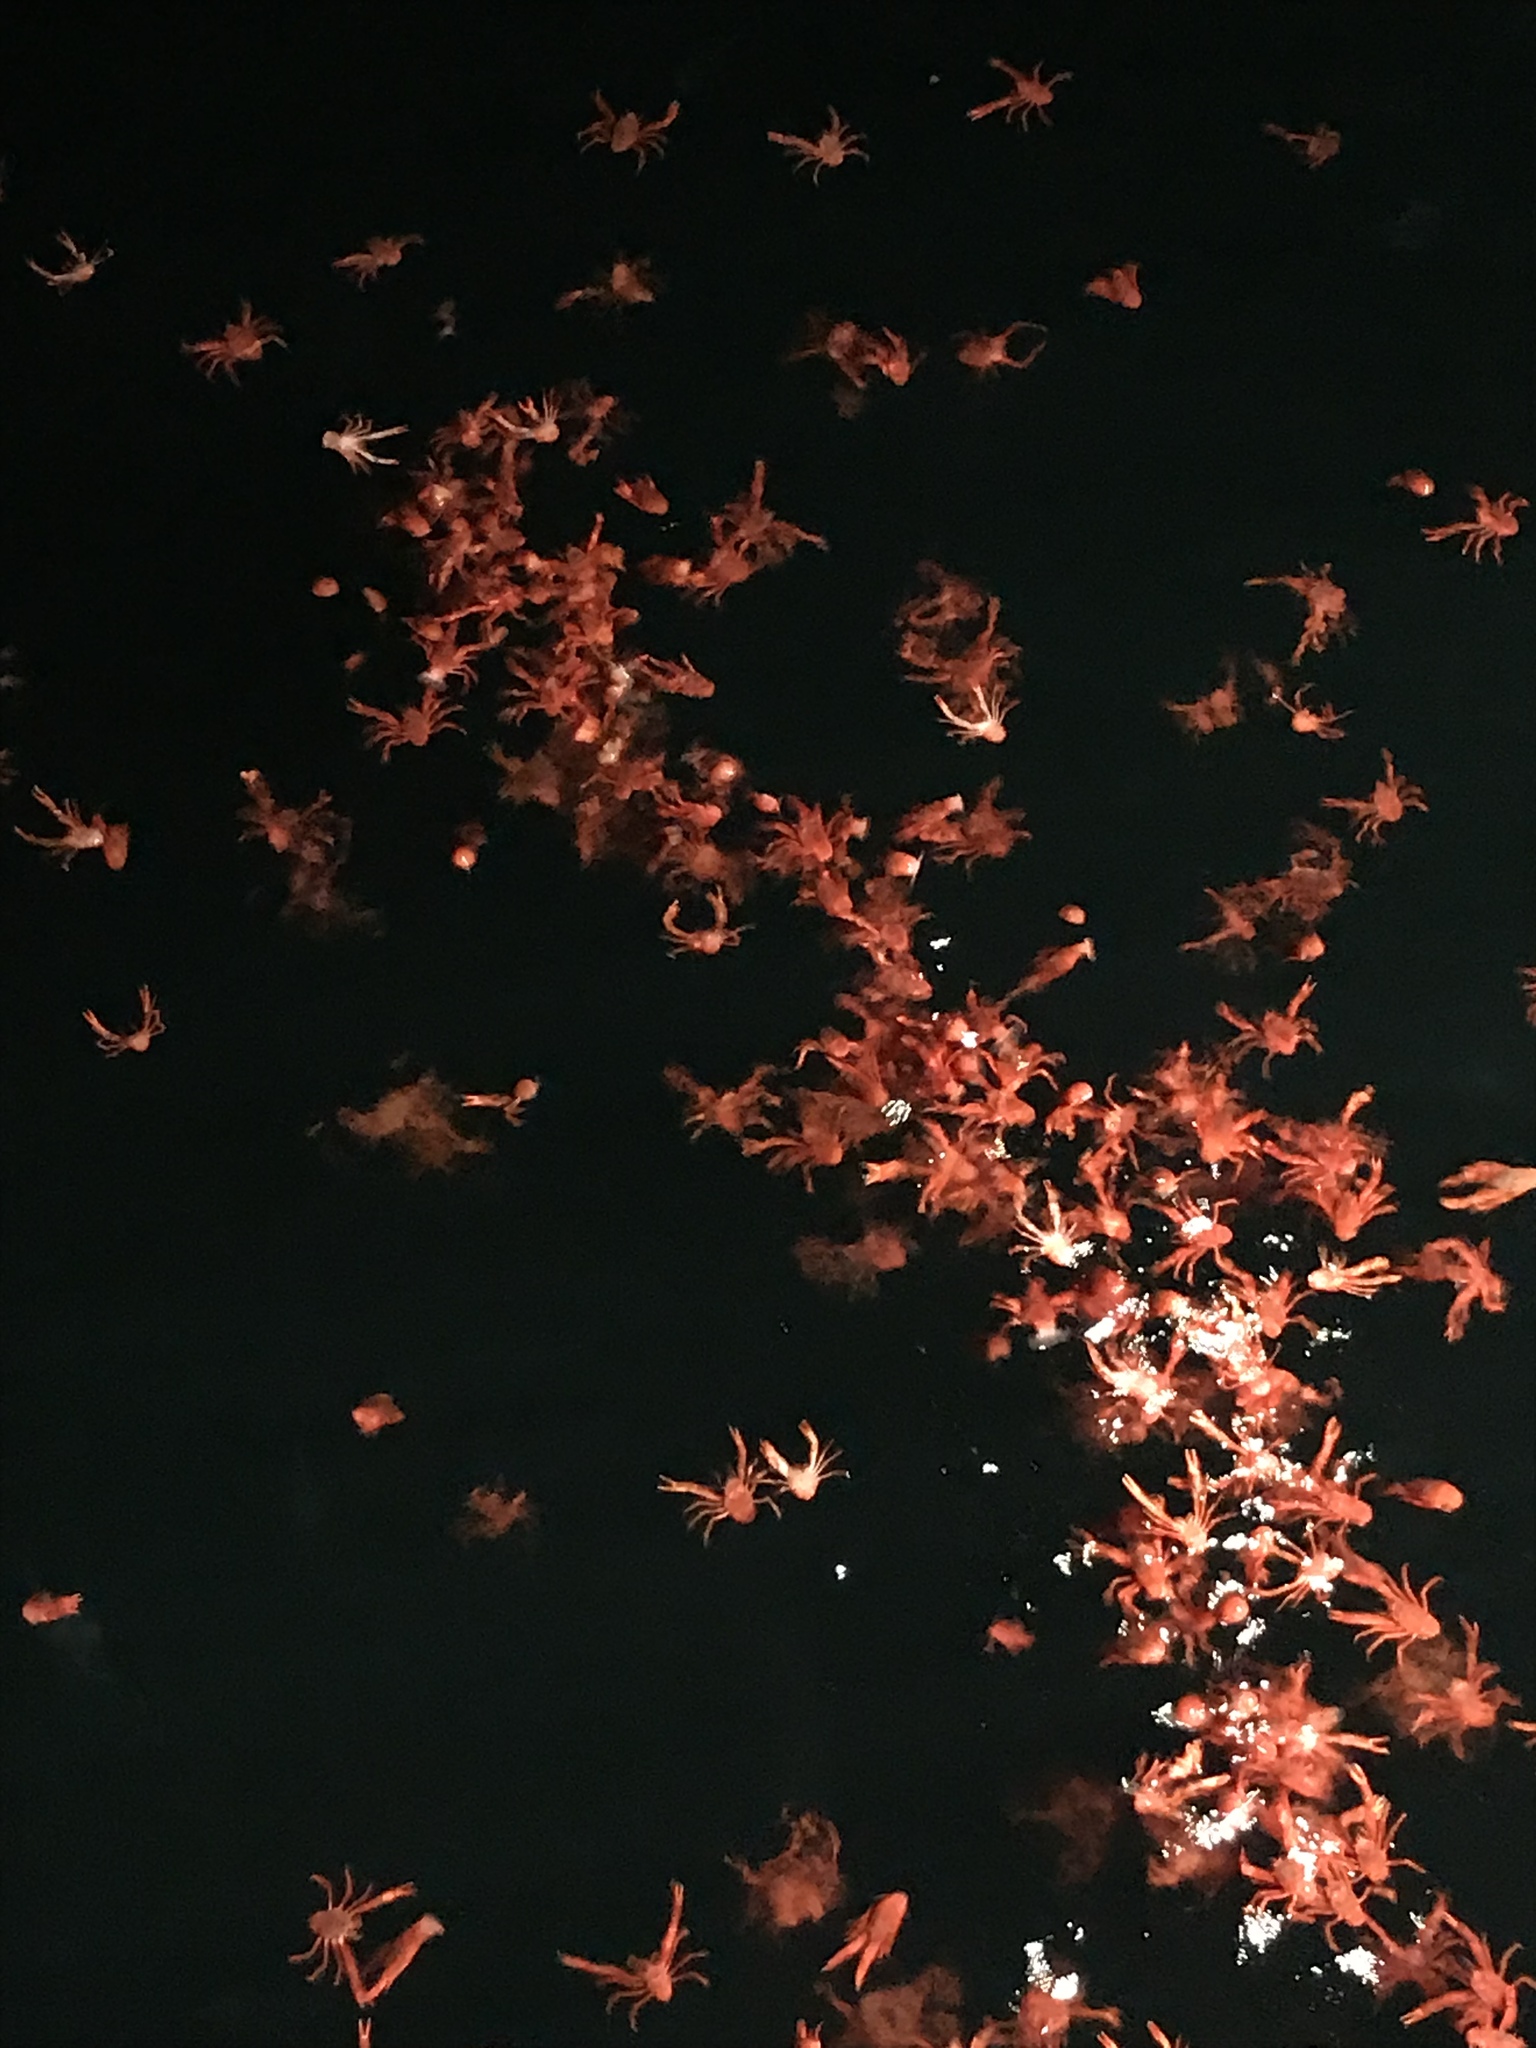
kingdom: Animalia
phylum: Arthropoda
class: Malacostraca
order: Decapoda
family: Munididae
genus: Grimothea
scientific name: Grimothea planipes
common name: Pelagic red crab
